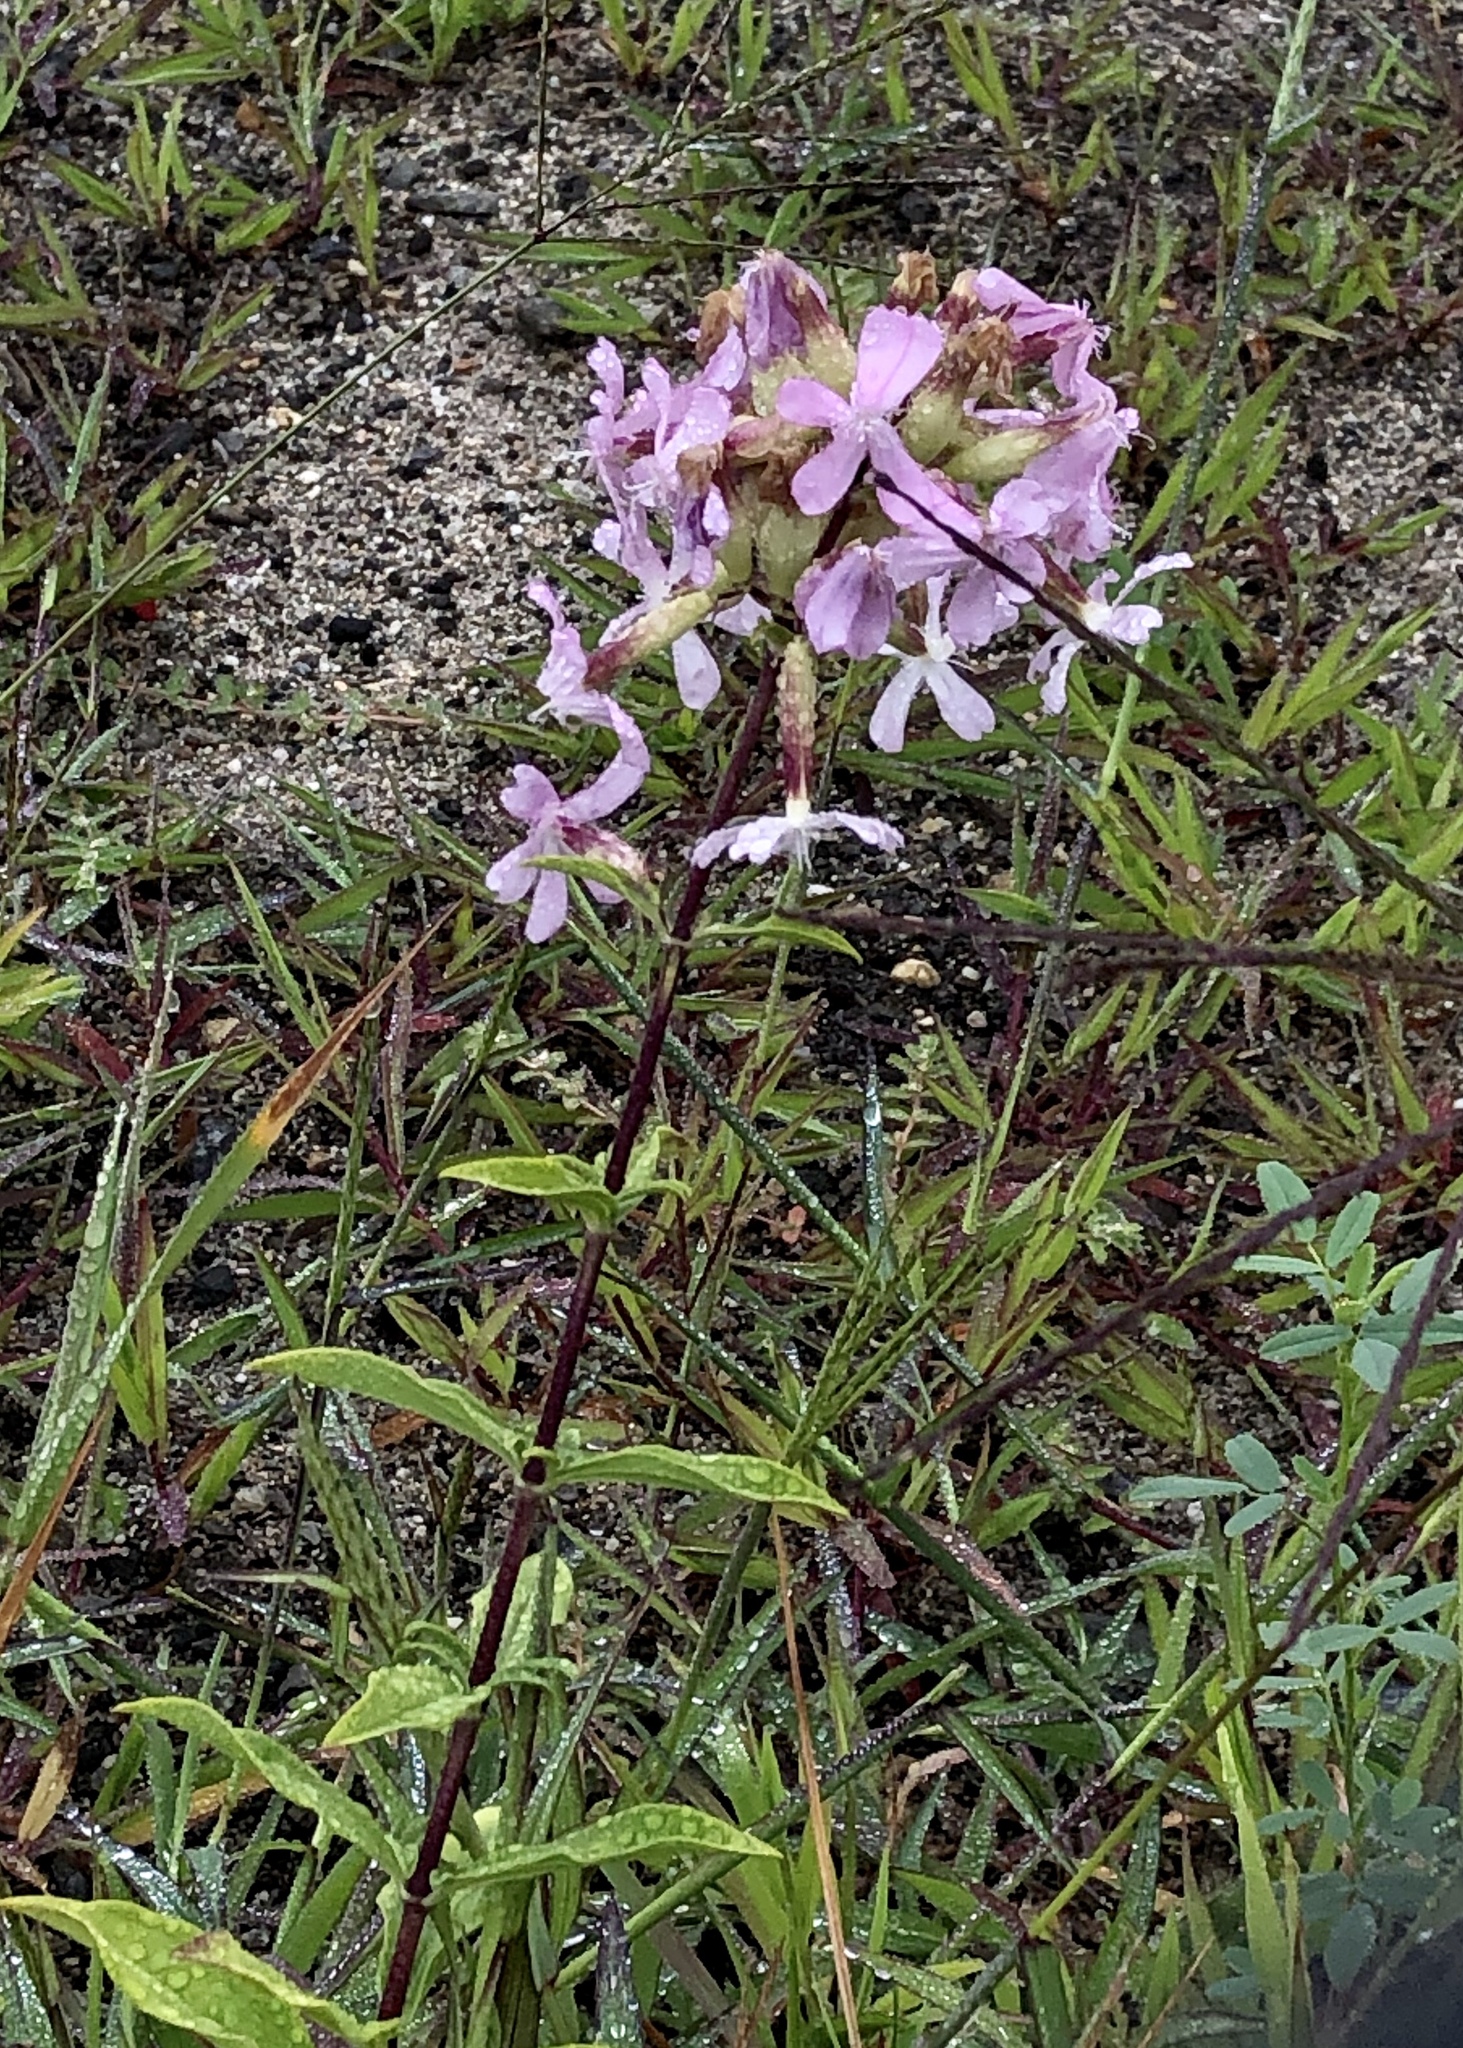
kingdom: Plantae
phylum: Tracheophyta
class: Magnoliopsida
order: Caryophyllales
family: Caryophyllaceae
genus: Saponaria
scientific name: Saponaria officinalis
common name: Soapwort
